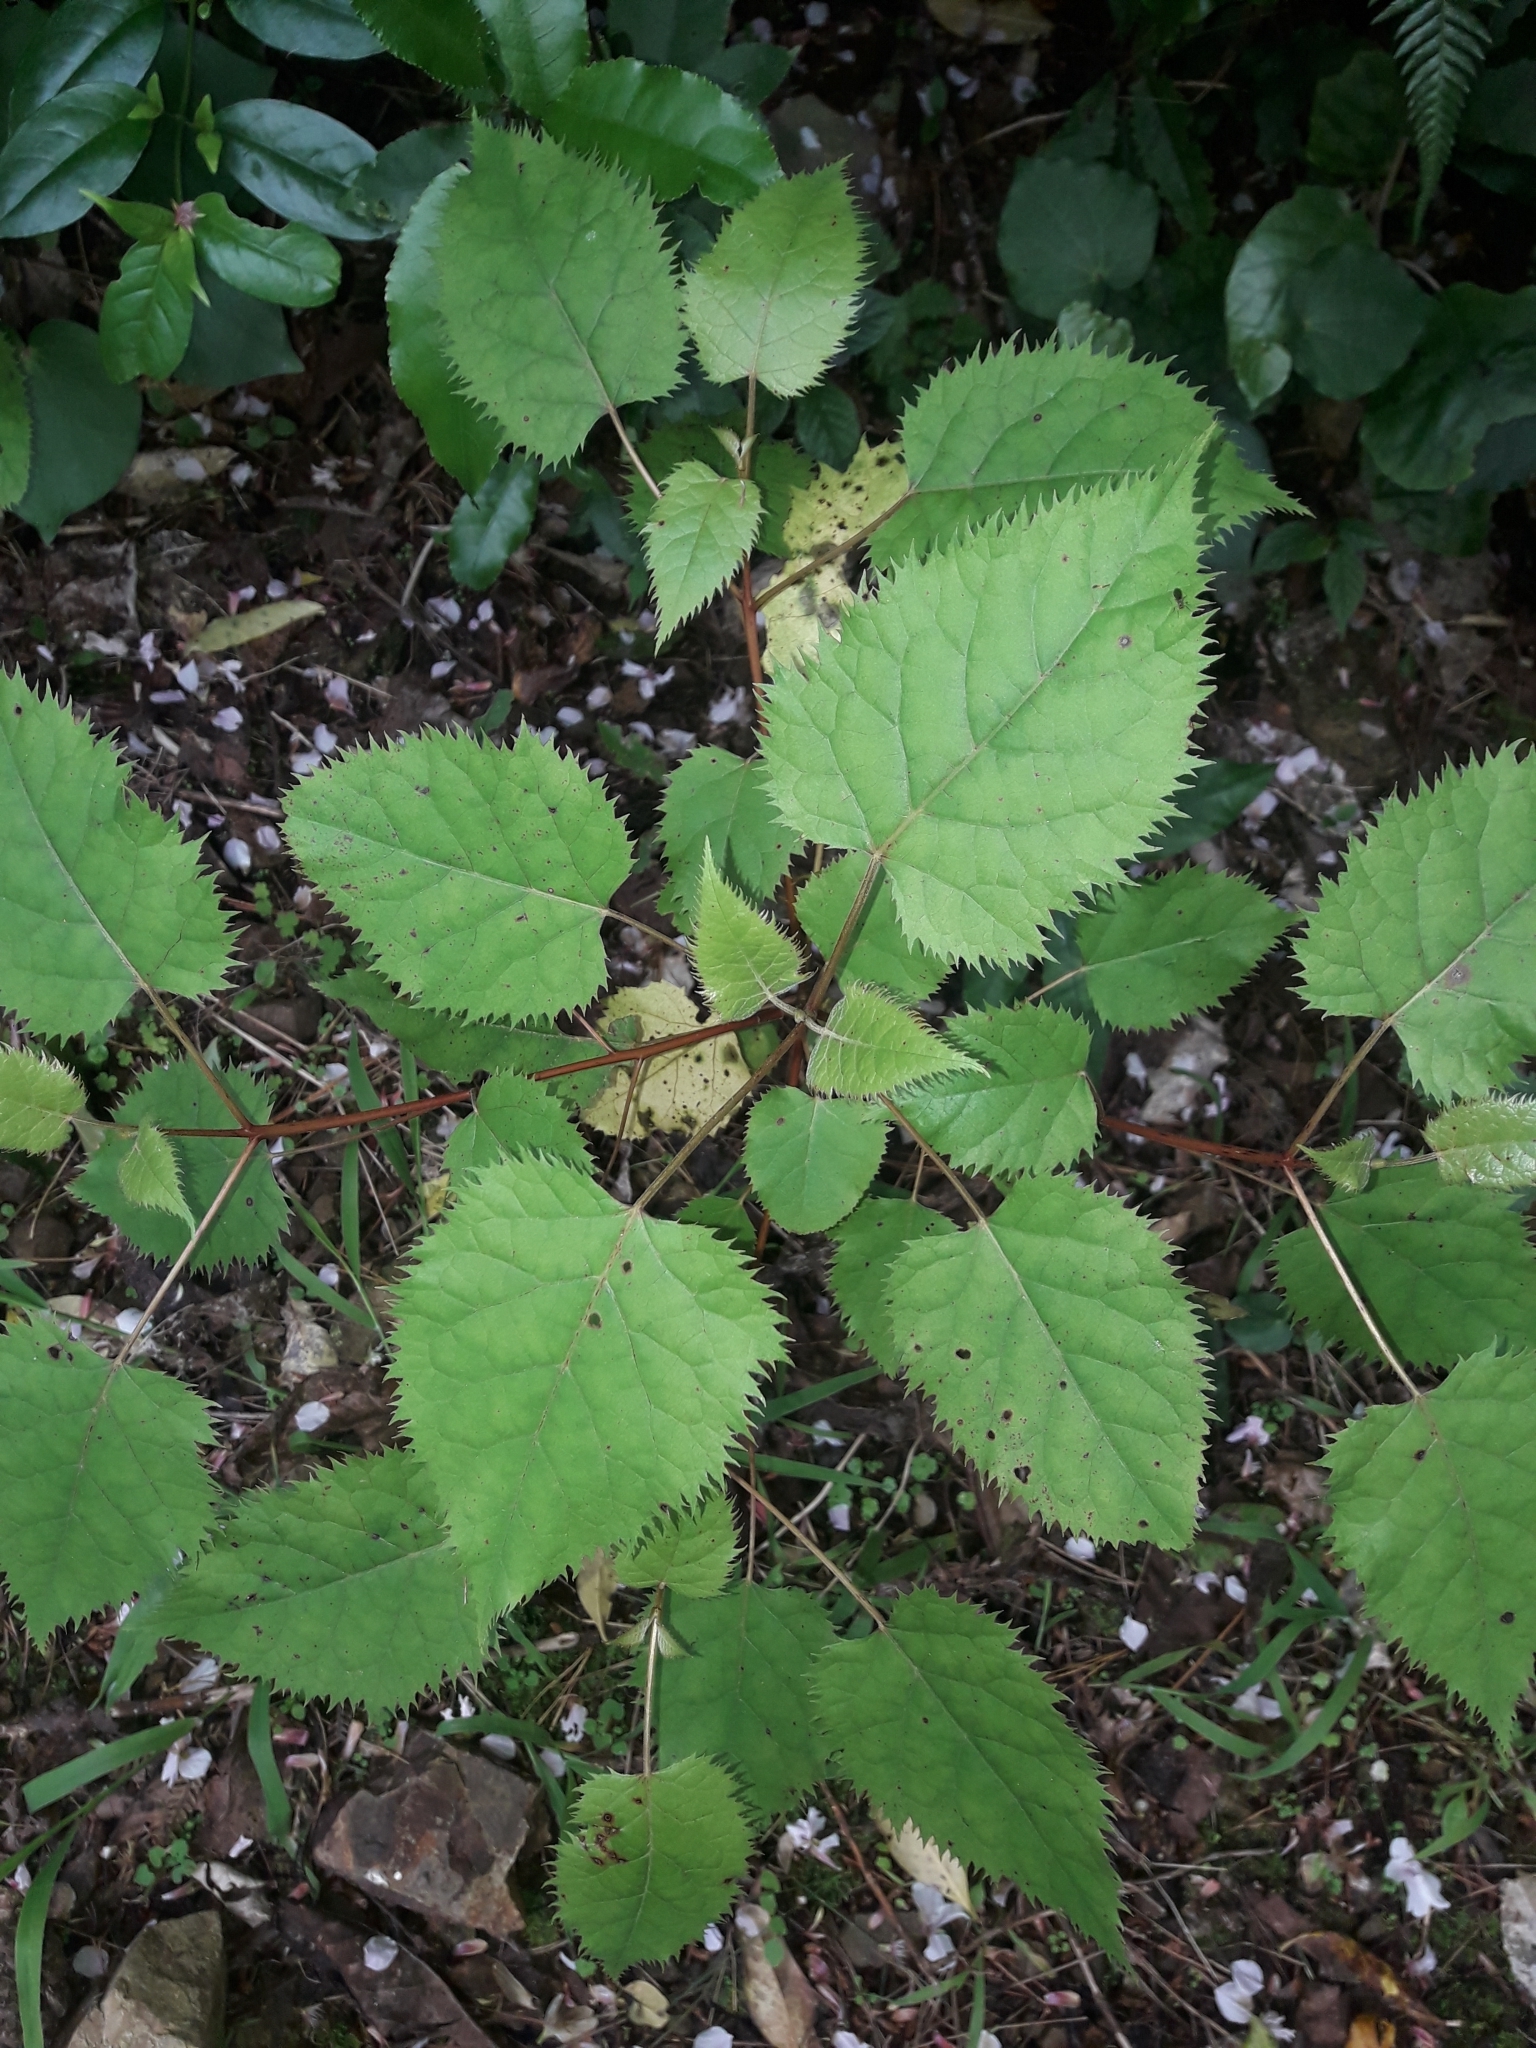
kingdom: Plantae
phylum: Tracheophyta
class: Magnoliopsida
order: Oxalidales
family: Elaeocarpaceae
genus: Aristotelia
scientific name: Aristotelia serrata
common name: New zealand wineberry
